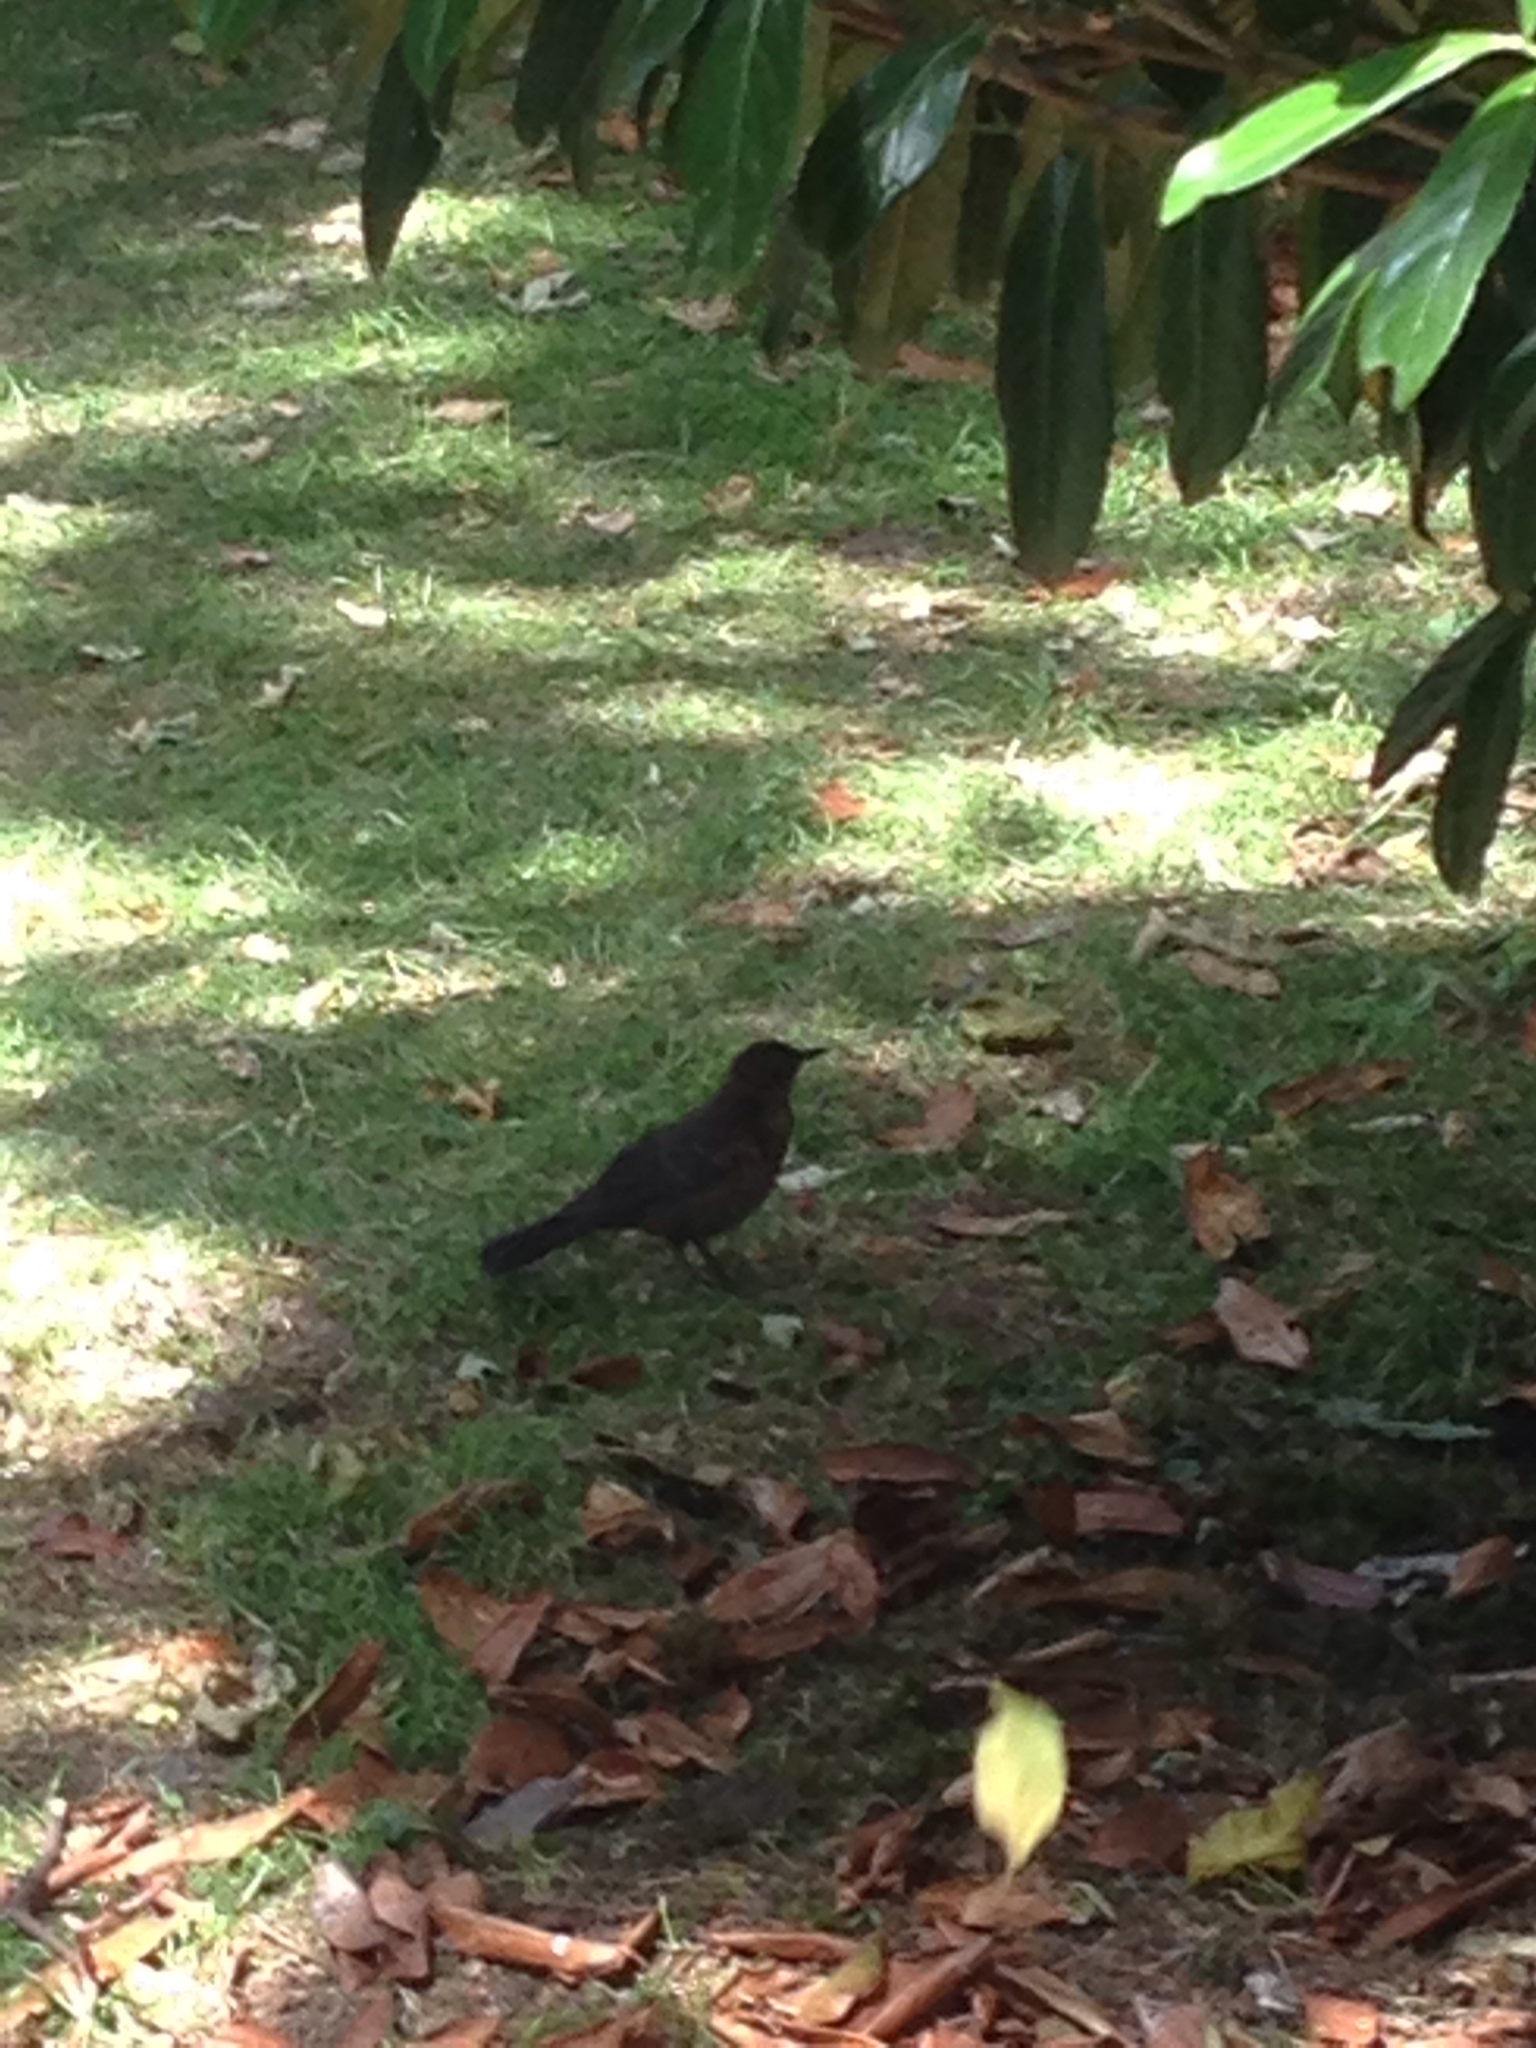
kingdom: Animalia
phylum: Chordata
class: Aves
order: Passeriformes
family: Turdidae
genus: Turdus
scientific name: Turdus merula
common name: Common blackbird
